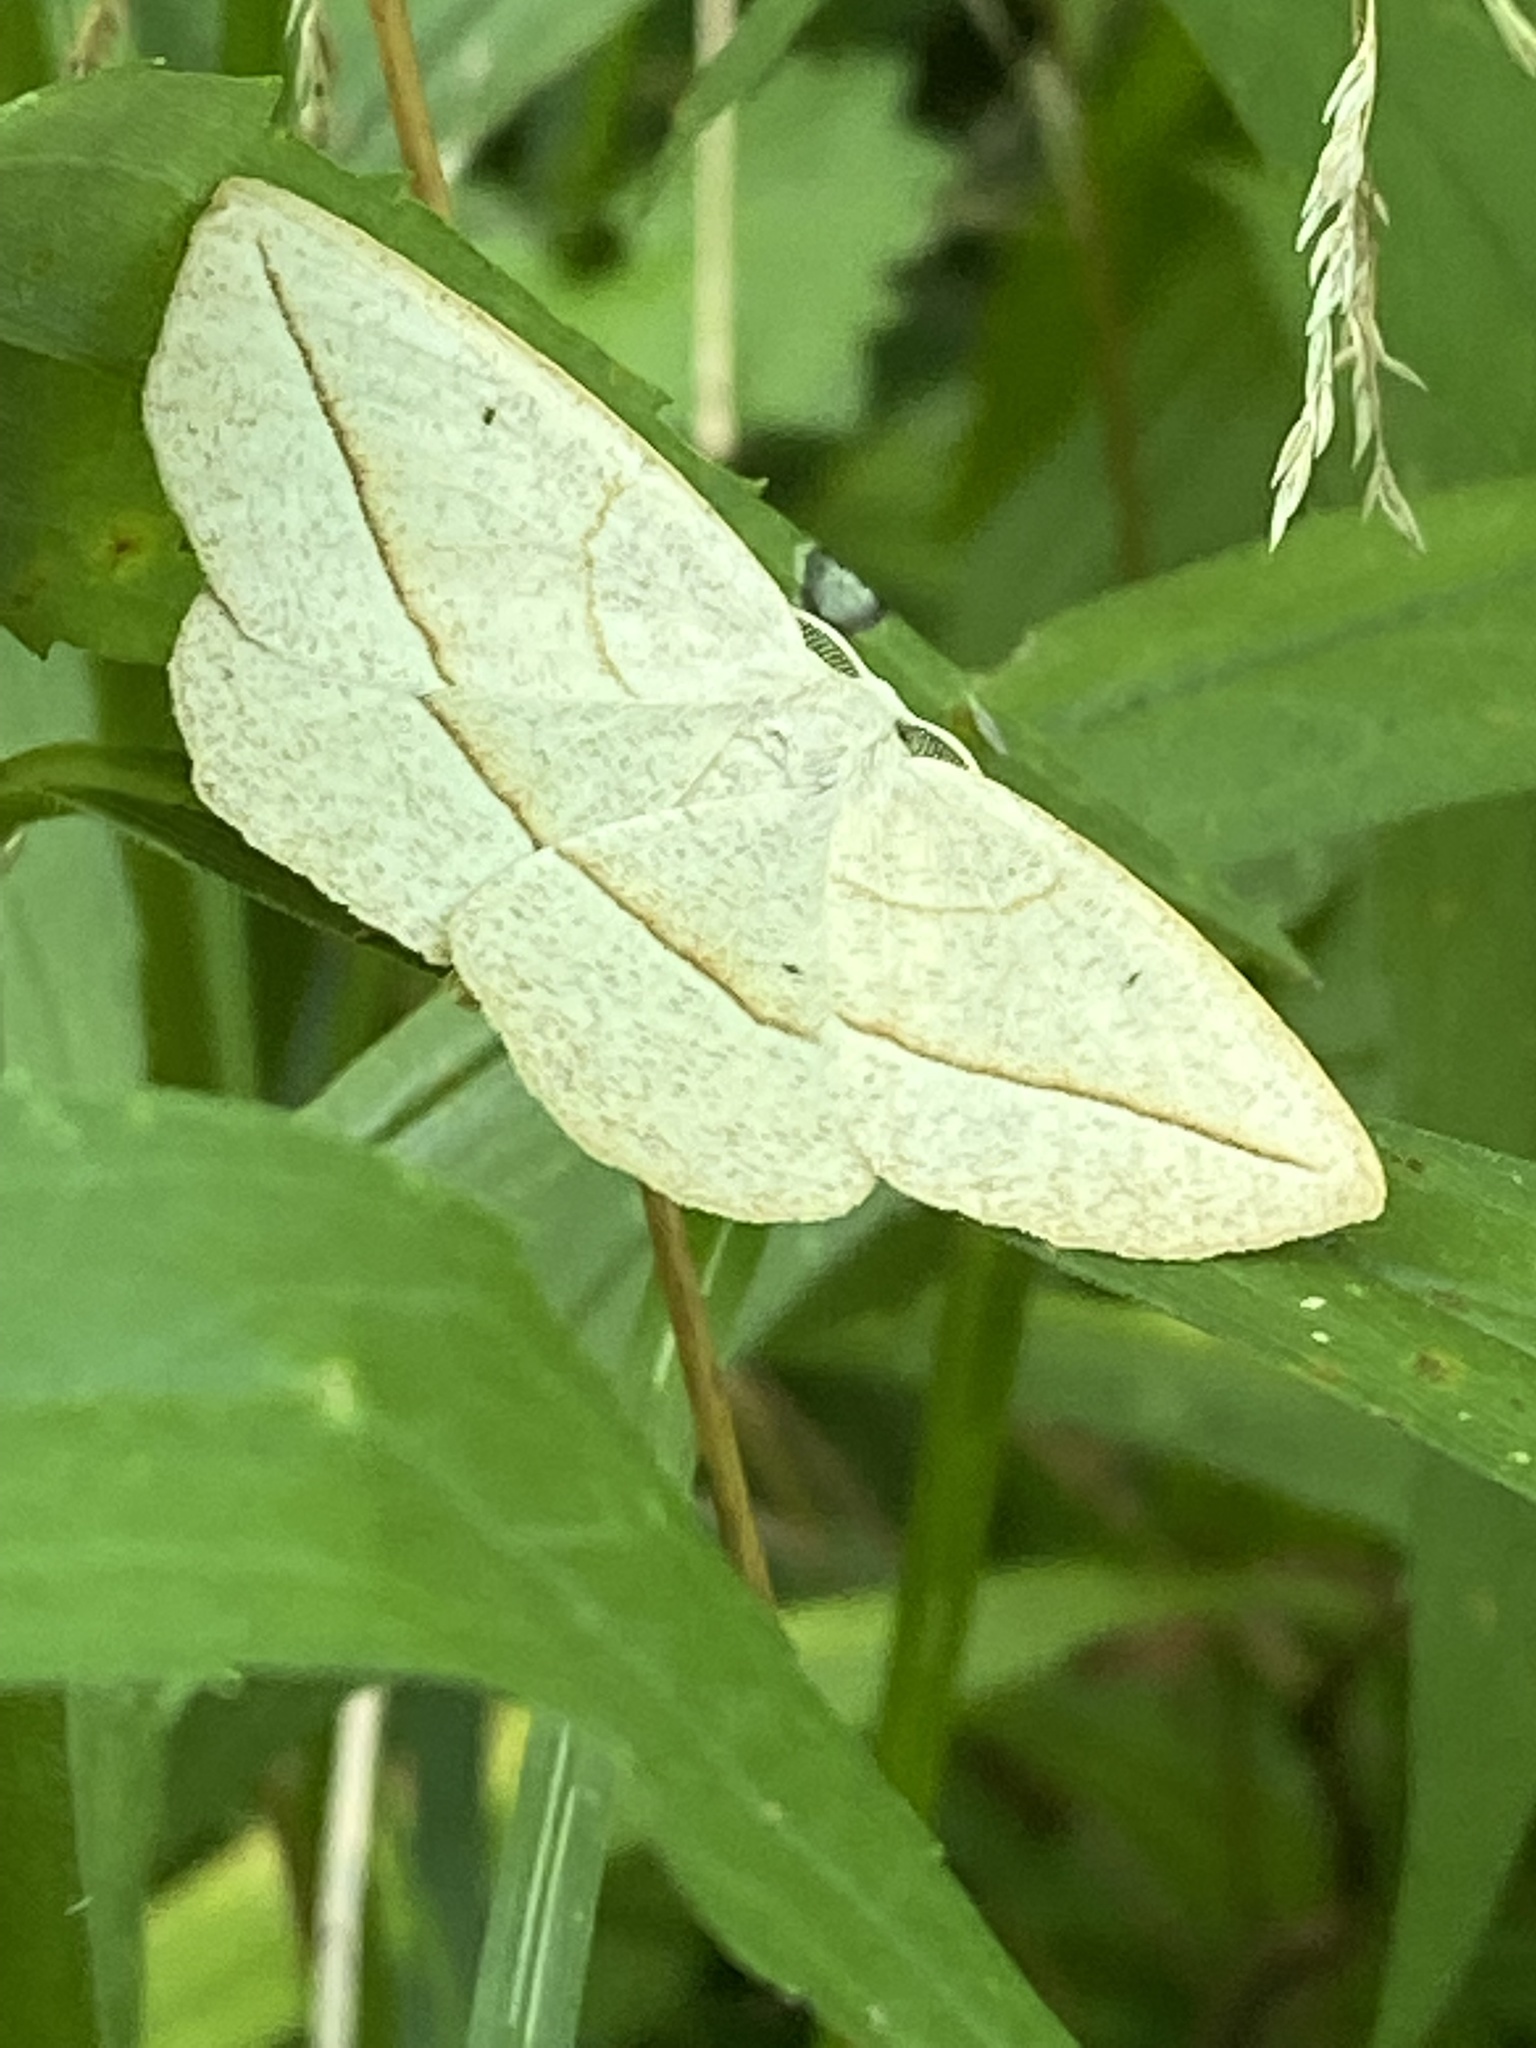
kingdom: Animalia
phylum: Arthropoda
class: Insecta
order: Lepidoptera
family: Geometridae
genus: Eusarca
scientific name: Eusarca confusaria
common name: Confused eusarca
